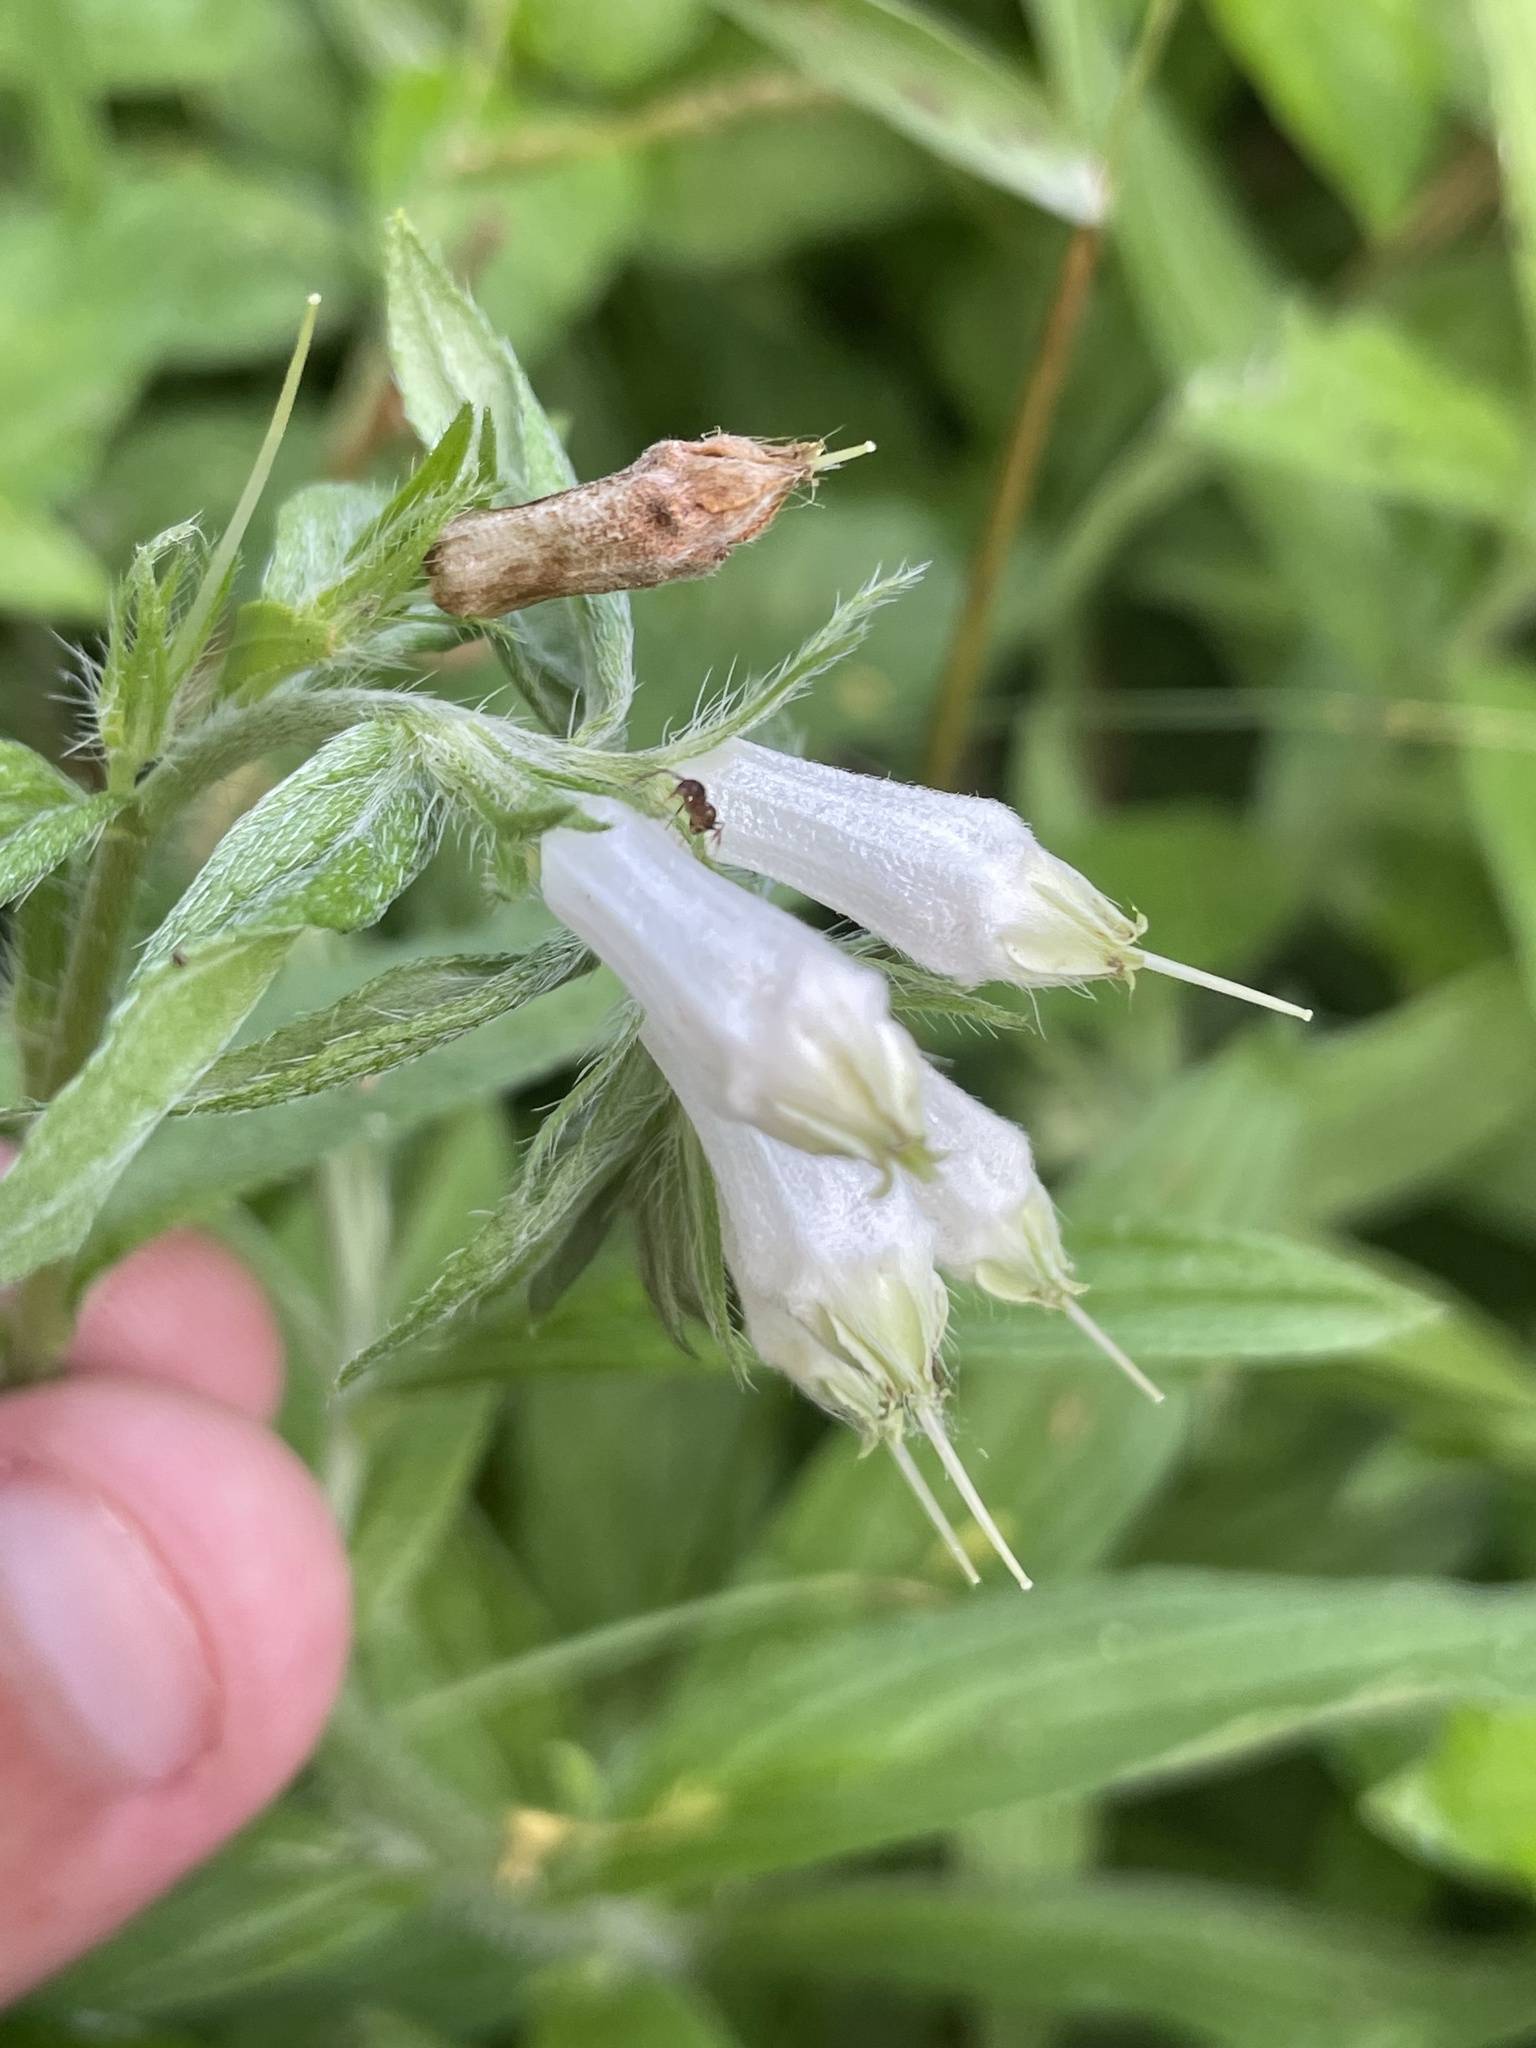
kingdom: Plantae
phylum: Tracheophyta
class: Magnoliopsida
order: Boraginales
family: Boraginaceae
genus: Lithospermum
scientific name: Lithospermum caroliniense
